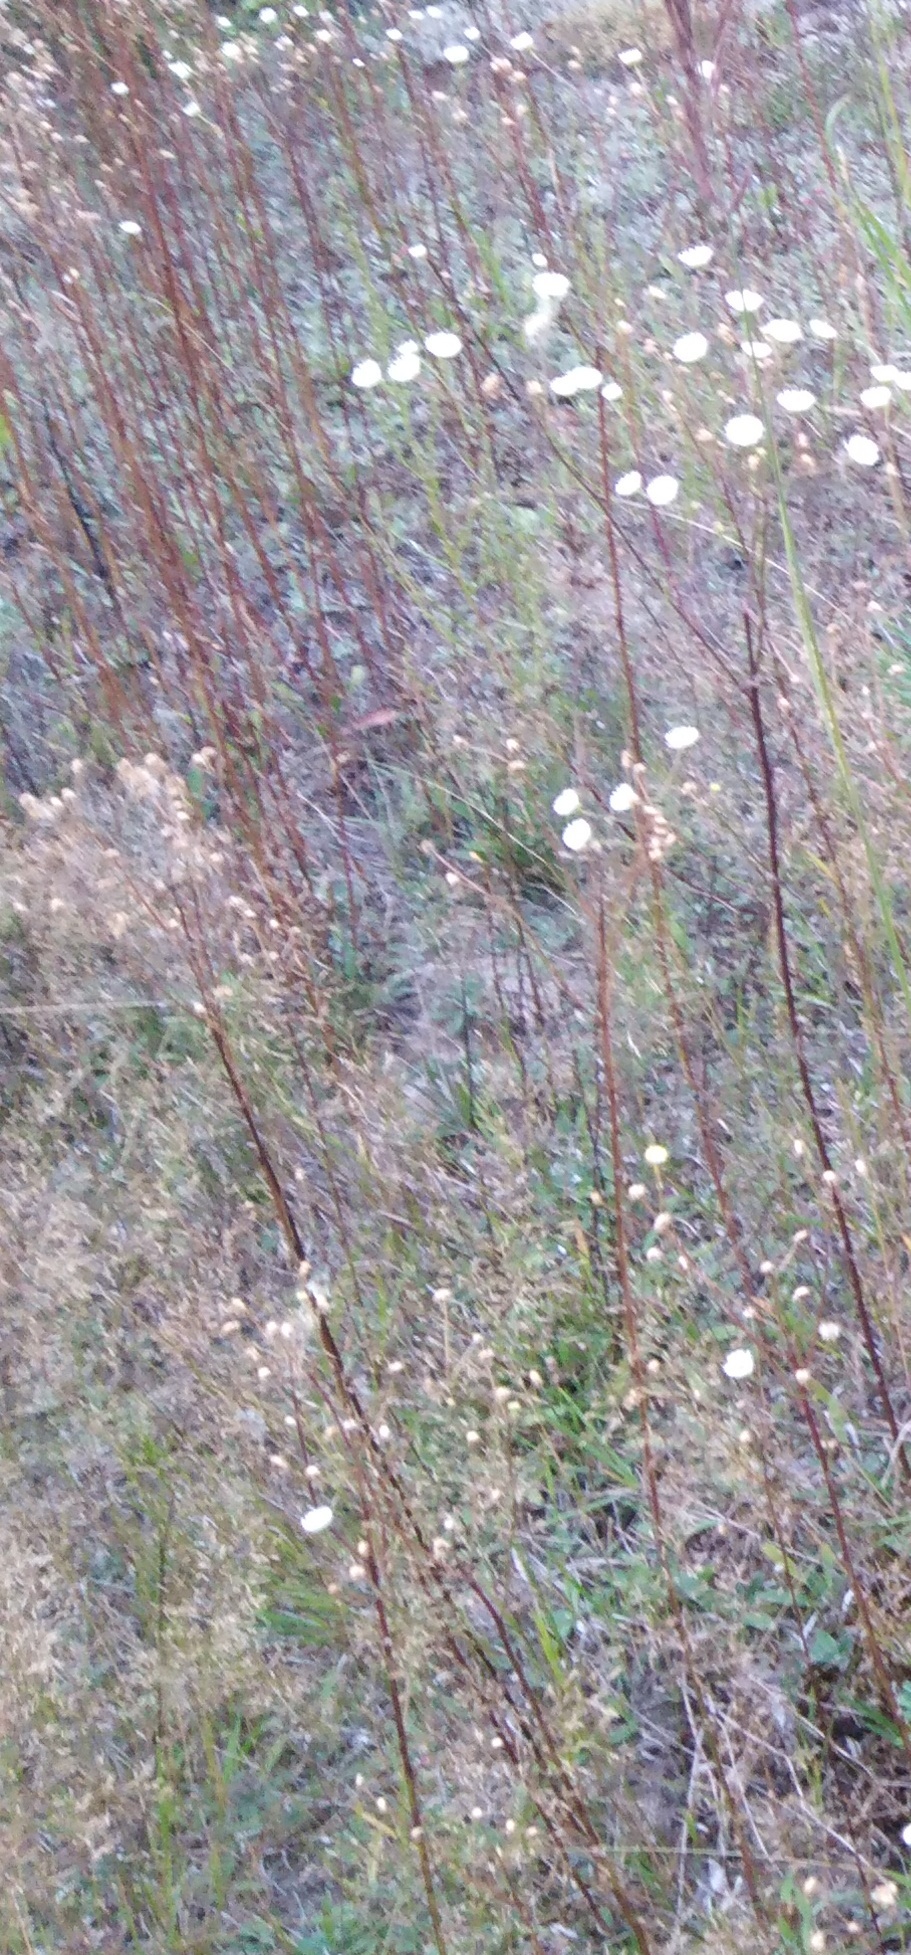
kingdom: Plantae
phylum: Tracheophyta
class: Magnoliopsida
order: Asterales
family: Asteraceae
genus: Erigeron
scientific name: Erigeron annuus
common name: Tall fleabane
